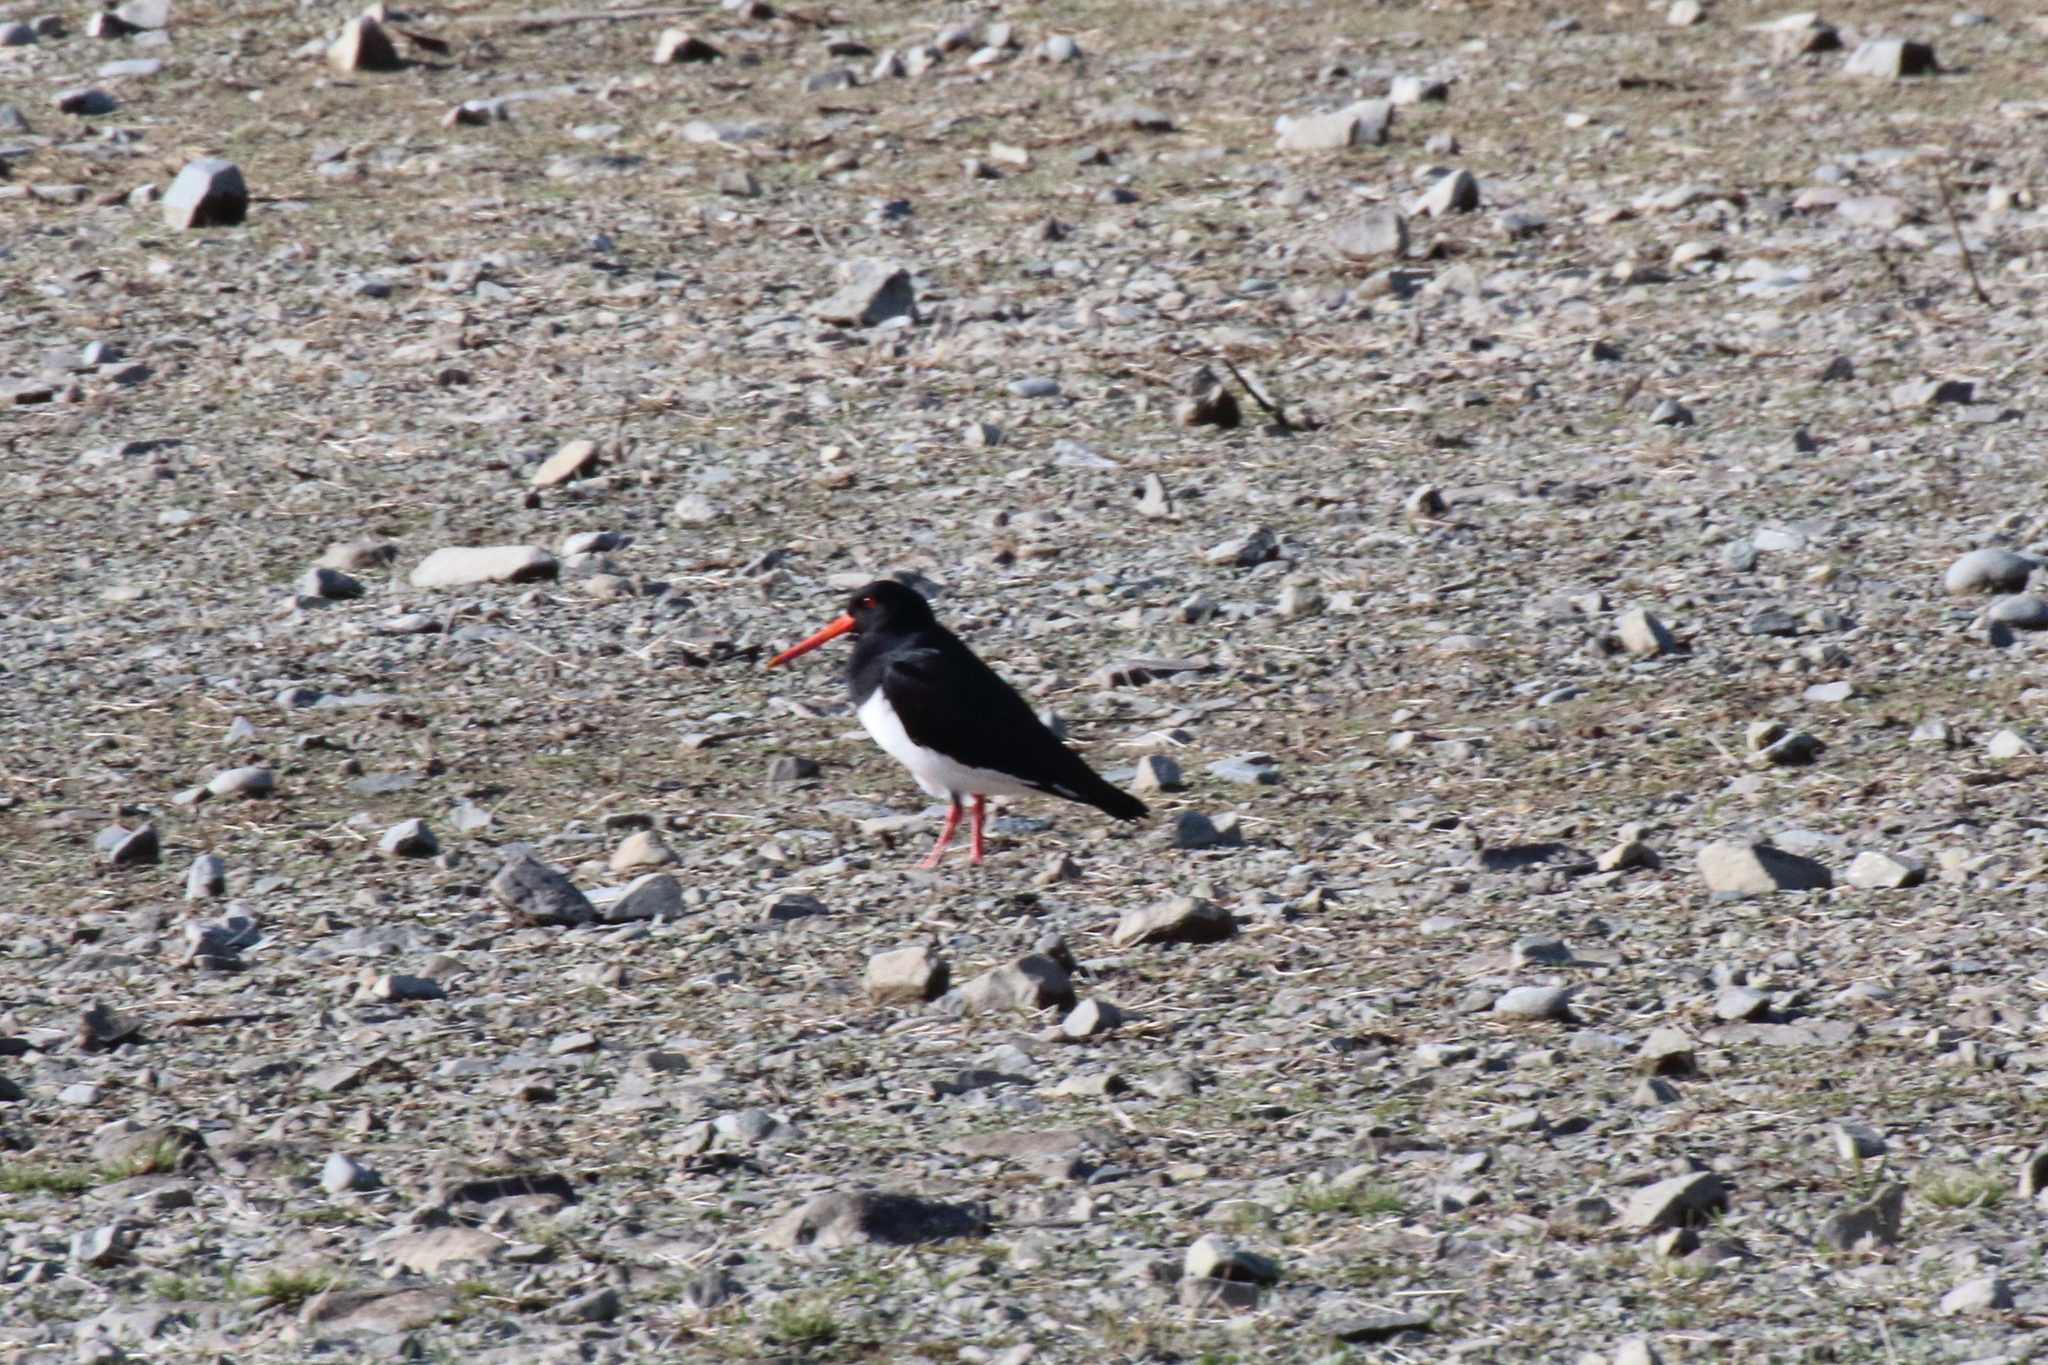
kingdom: Animalia
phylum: Chordata
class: Aves
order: Charadriiformes
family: Haematopodidae
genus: Haematopus
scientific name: Haematopus finschi
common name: South island oystercatcher
